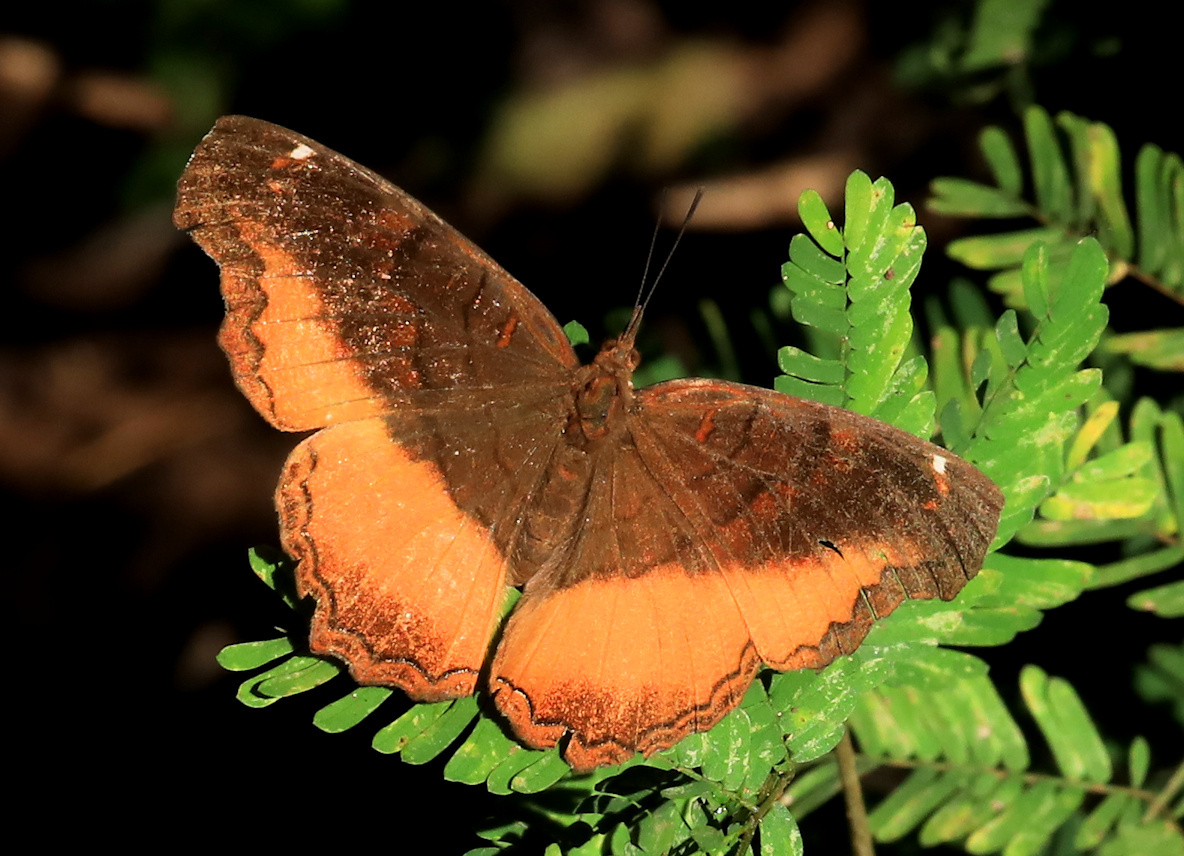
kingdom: Animalia
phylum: Arthropoda
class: Insecta
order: Lepidoptera
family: Nymphalidae
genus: Eurytela
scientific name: Eurytela dryope
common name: Golden piper
